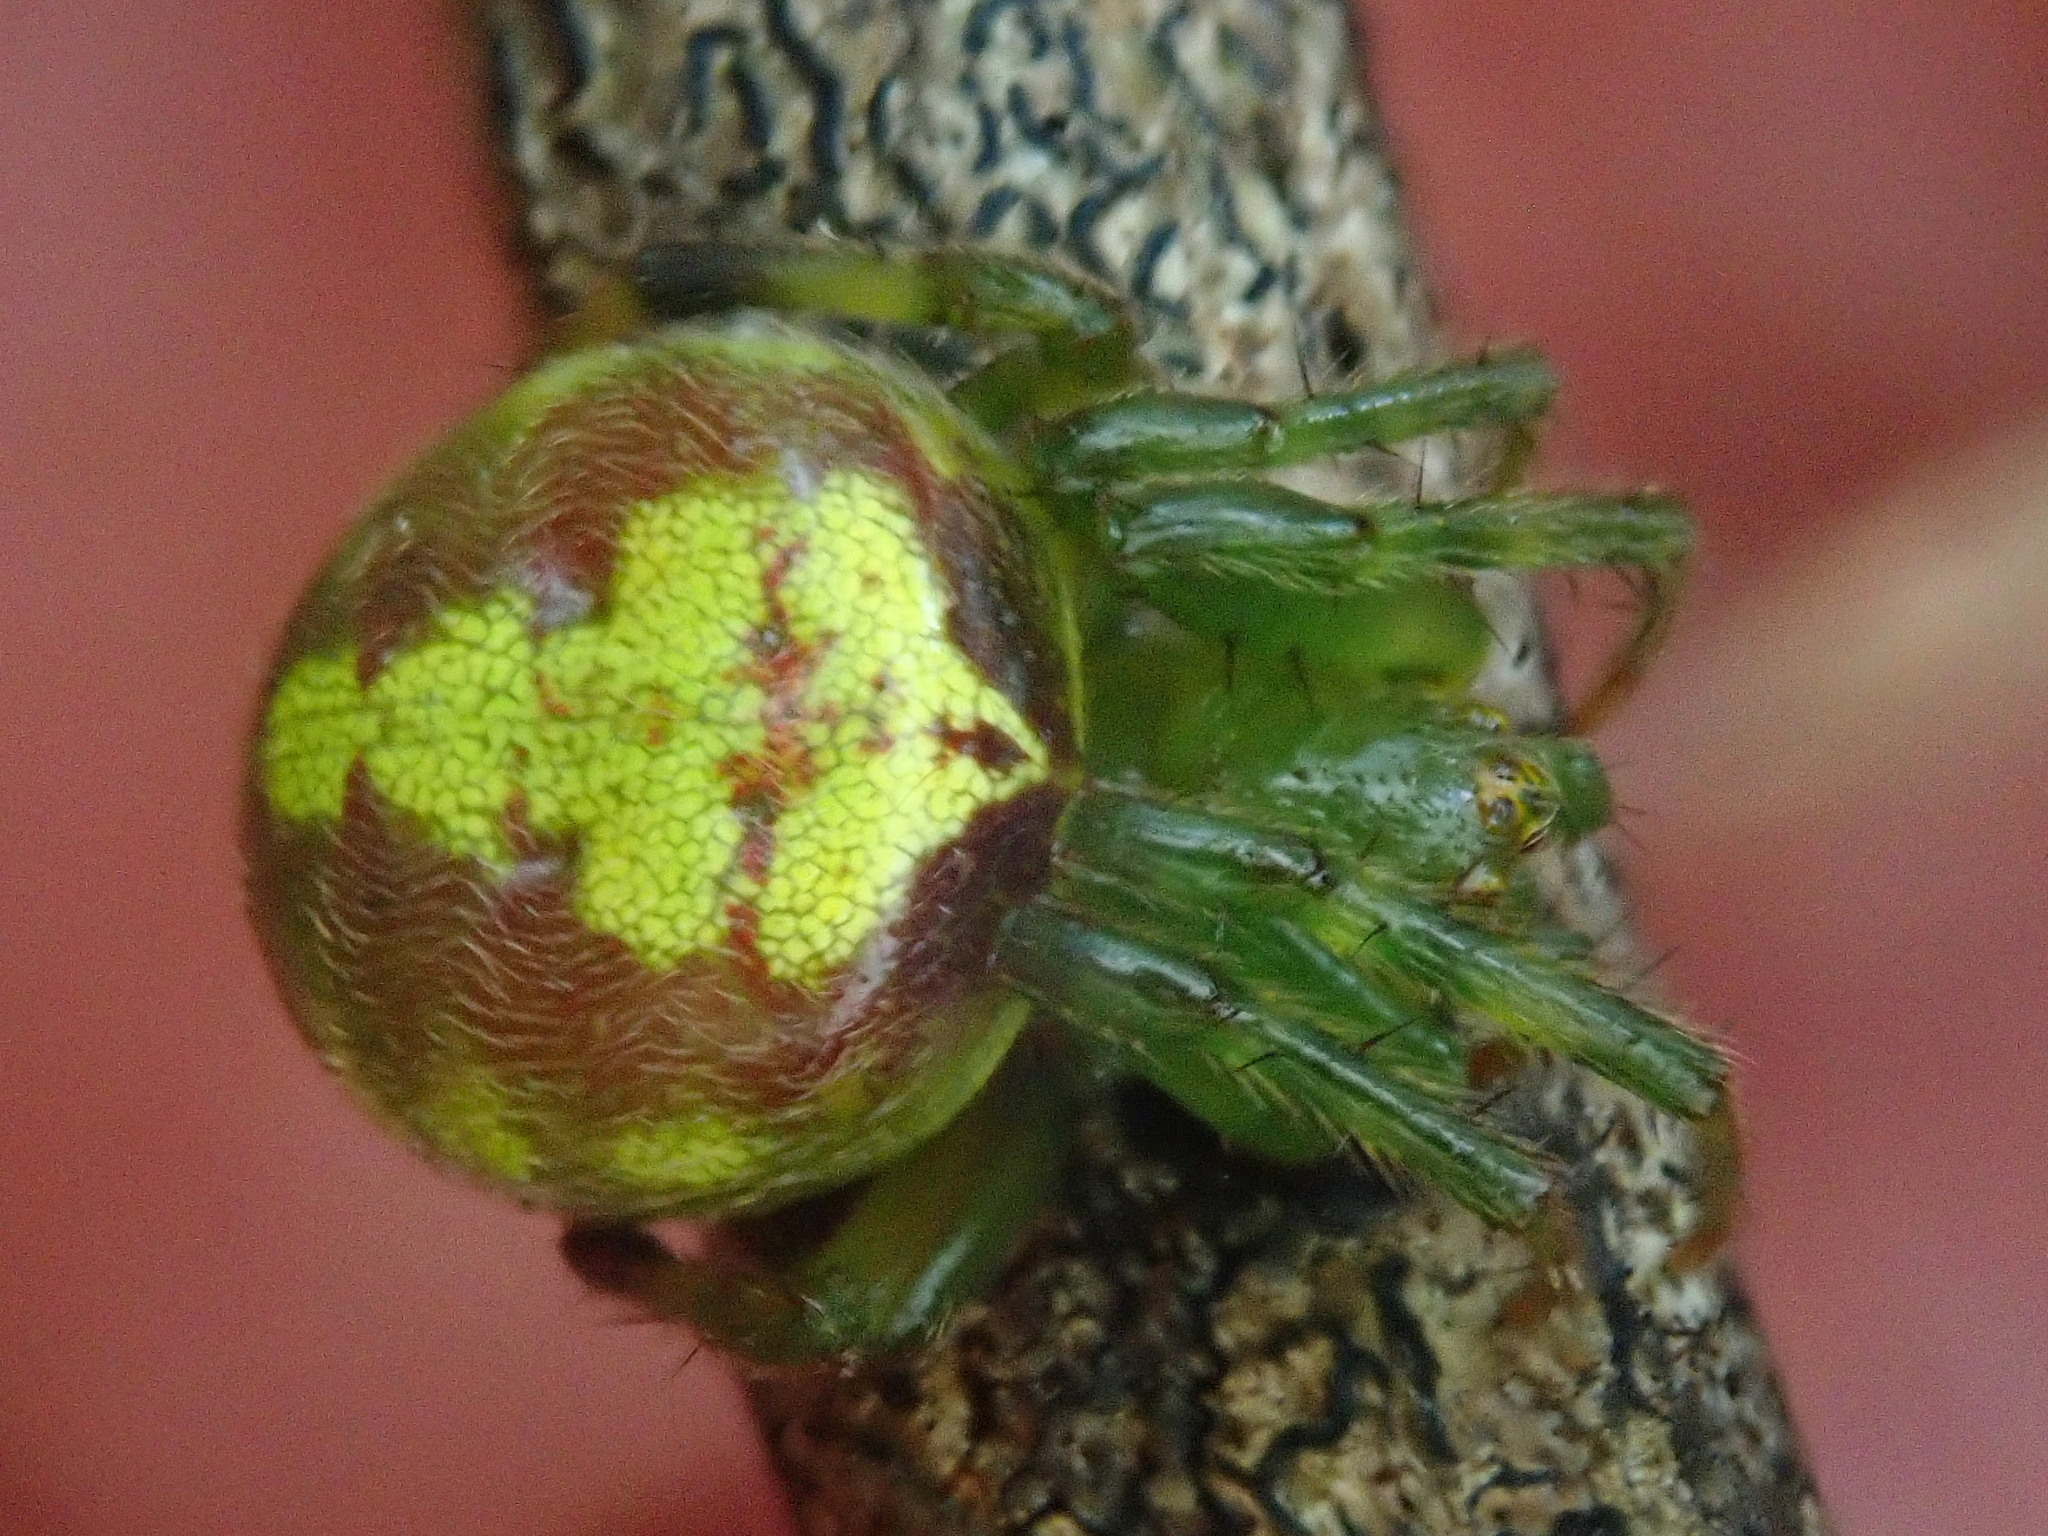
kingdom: Animalia
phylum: Arthropoda
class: Arachnida
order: Araneae
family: Araneidae
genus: Araneus
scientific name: Araneus unanimus
